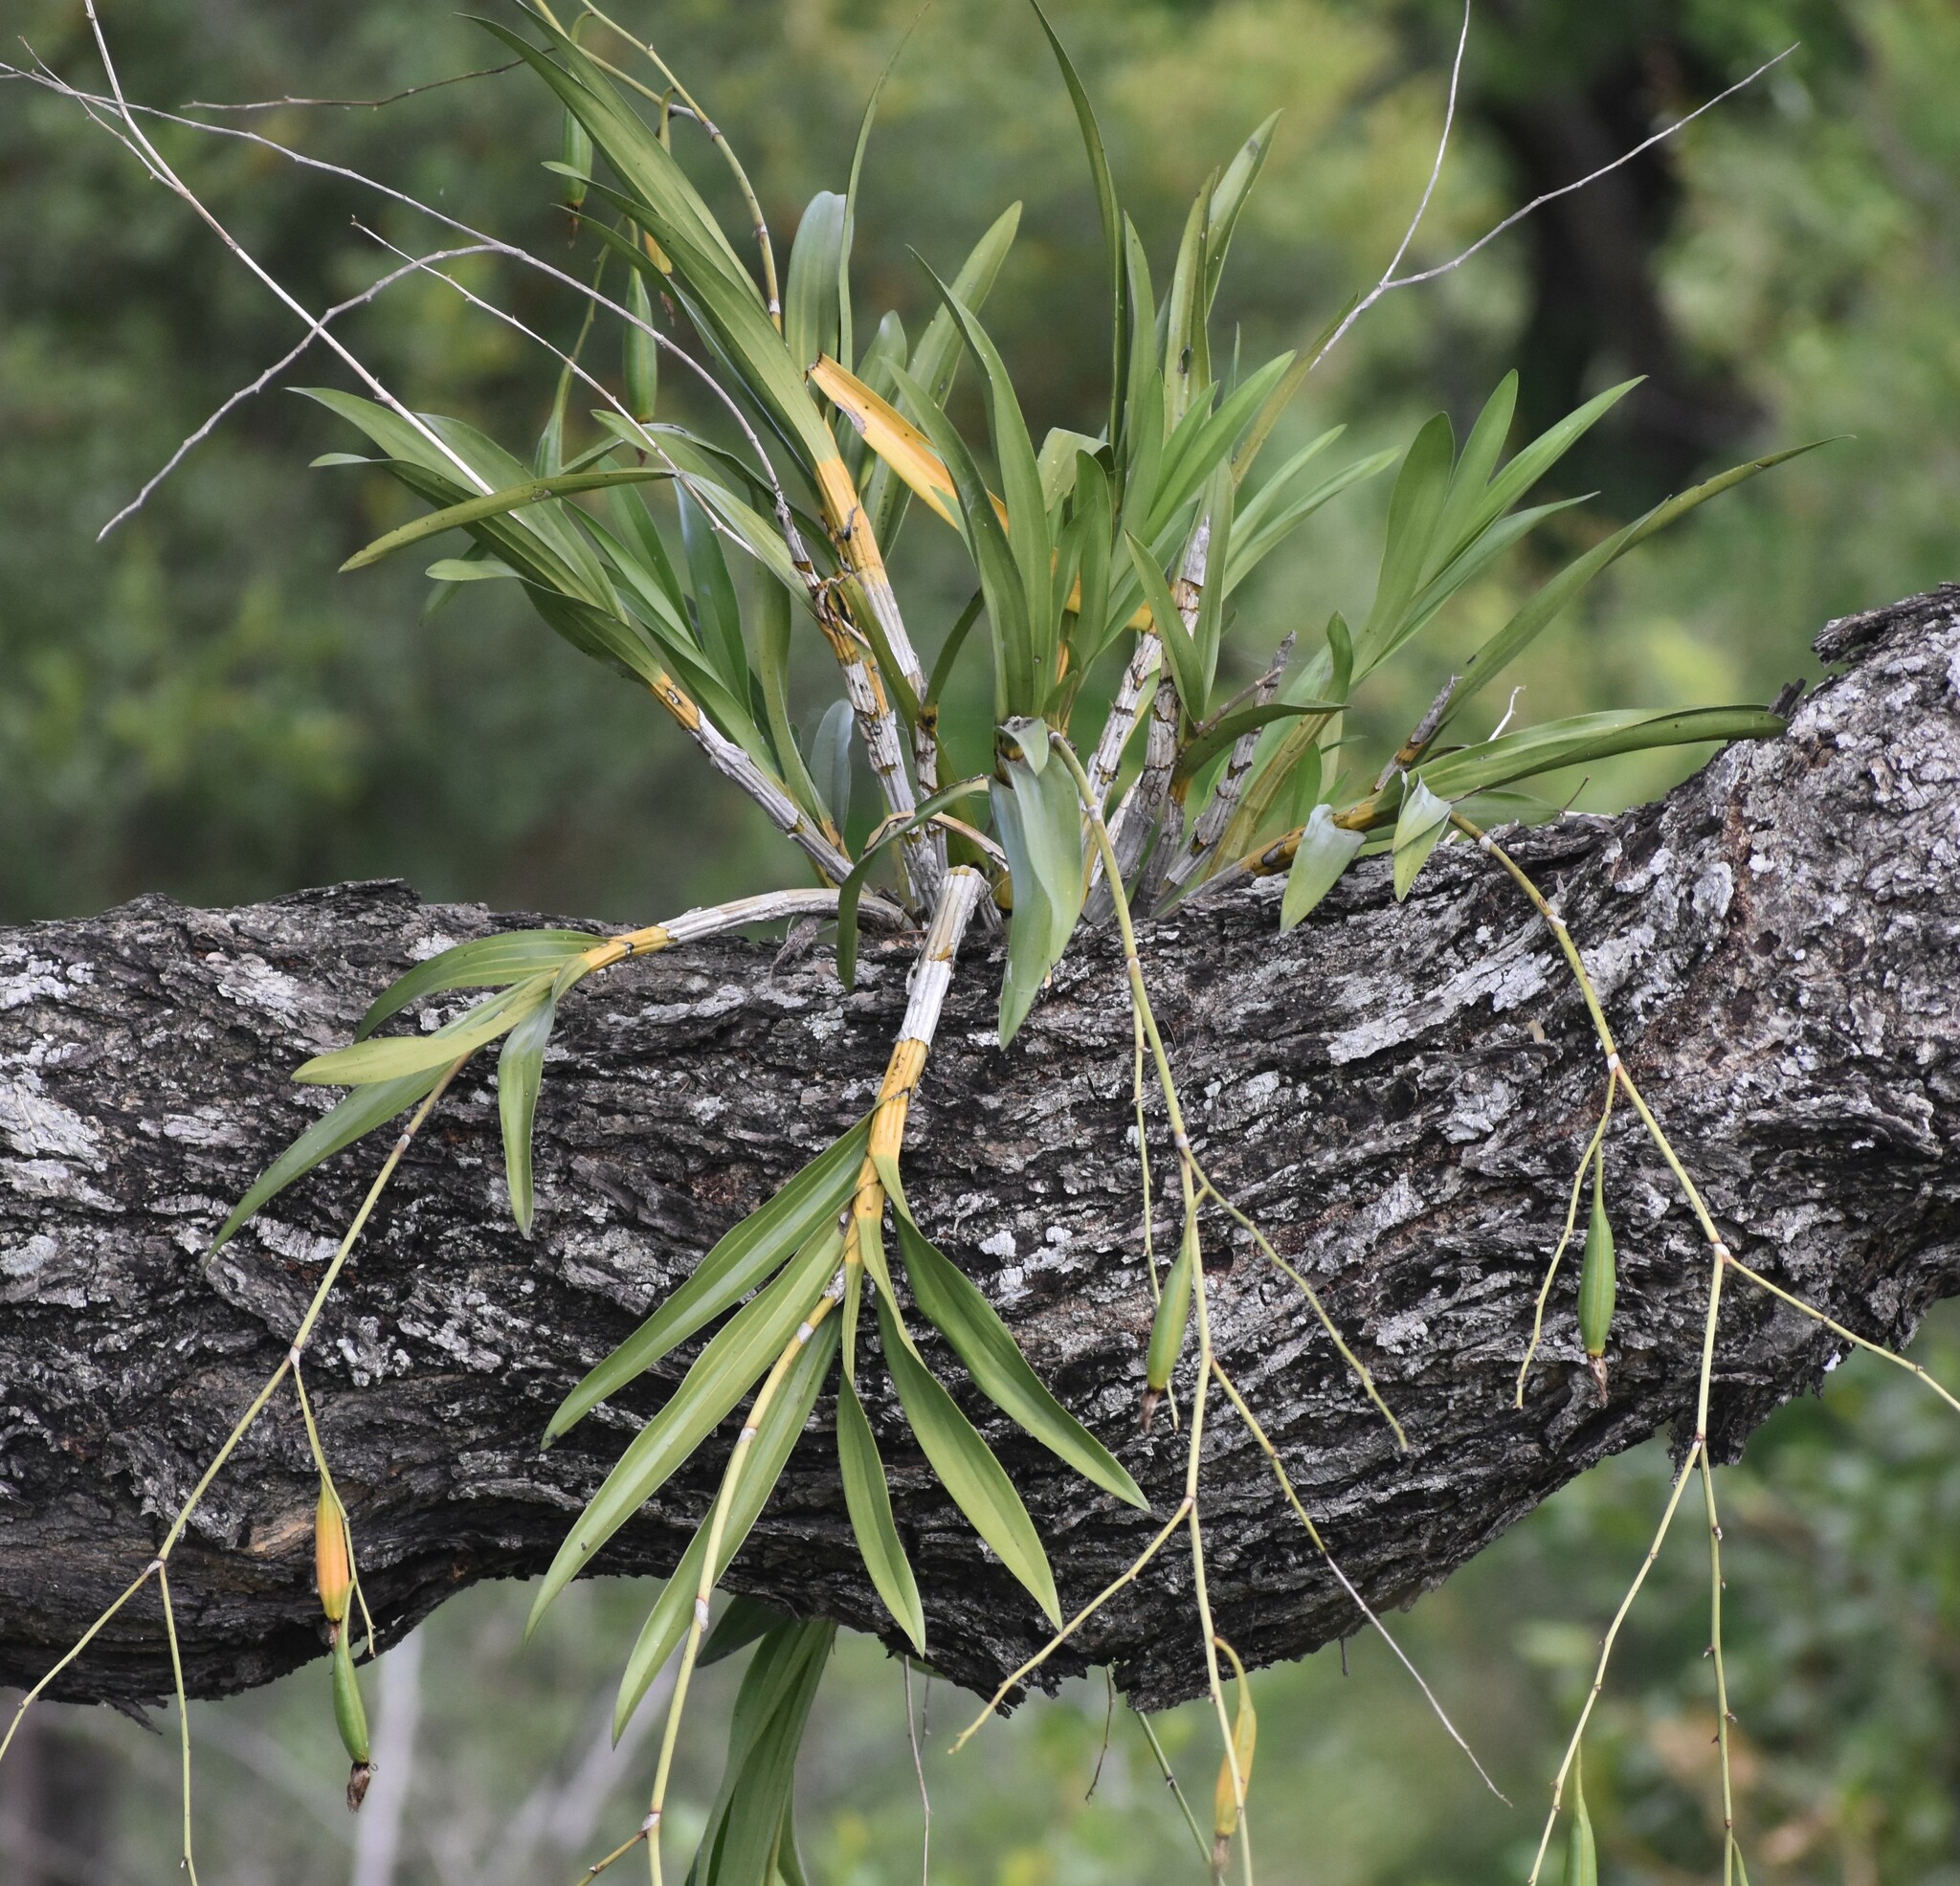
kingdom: Plantae
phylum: Tracheophyta
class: Liliopsida
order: Asparagales
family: Orchidaceae
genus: Ansellia
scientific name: Ansellia africana
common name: African ansellia
